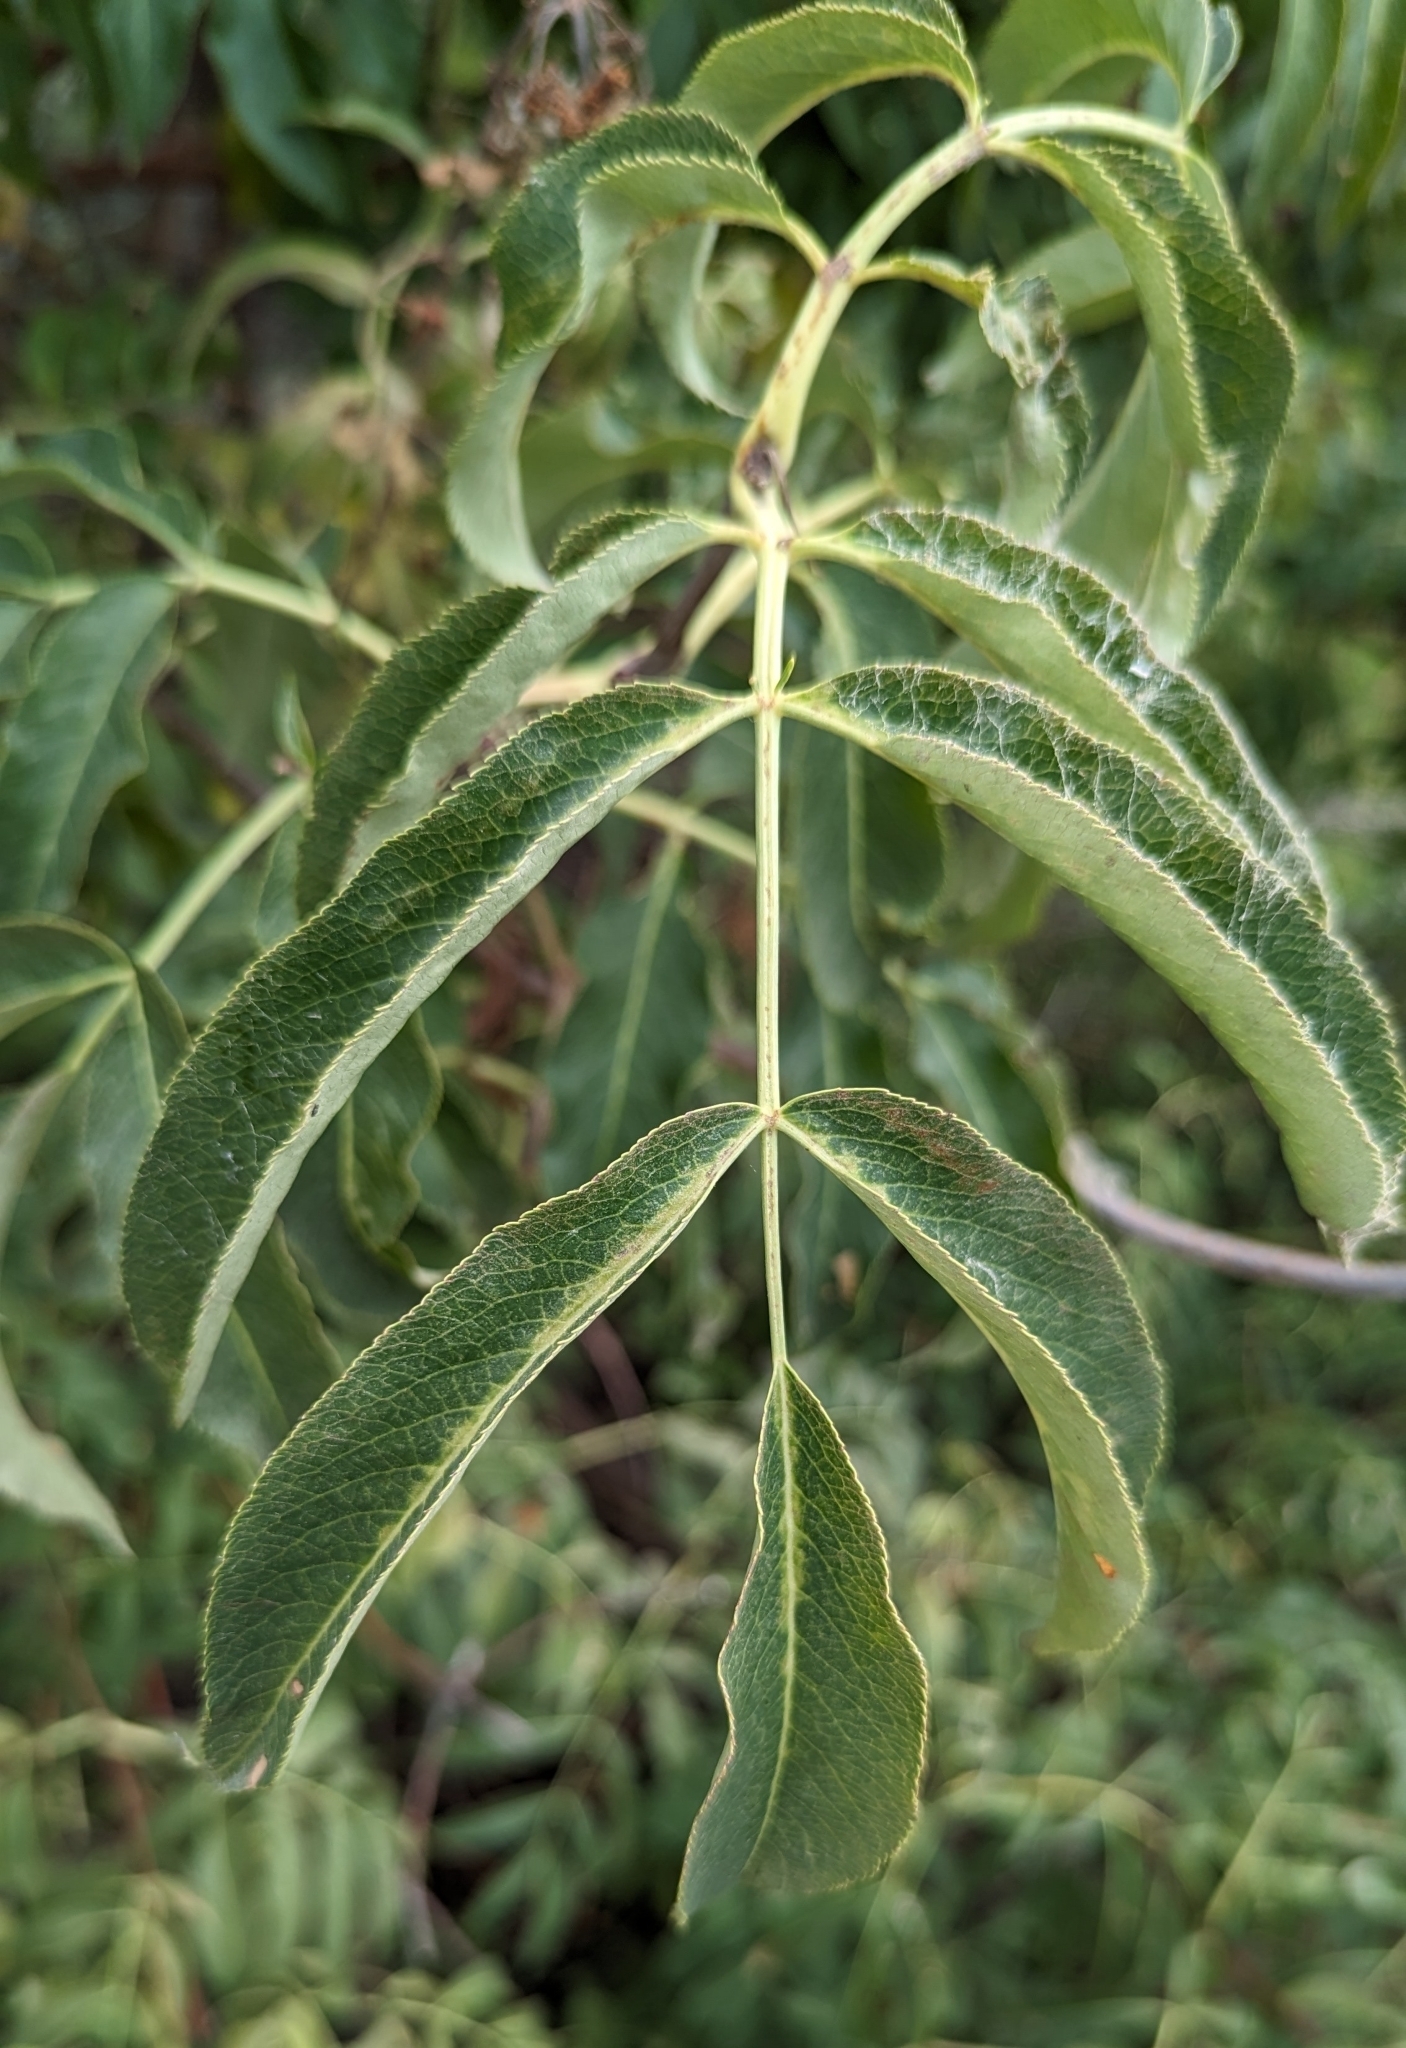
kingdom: Plantae
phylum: Tracheophyta
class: Magnoliopsida
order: Dipsacales
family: Viburnaceae
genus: Sambucus
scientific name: Sambucus cerulea
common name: Blue elder
